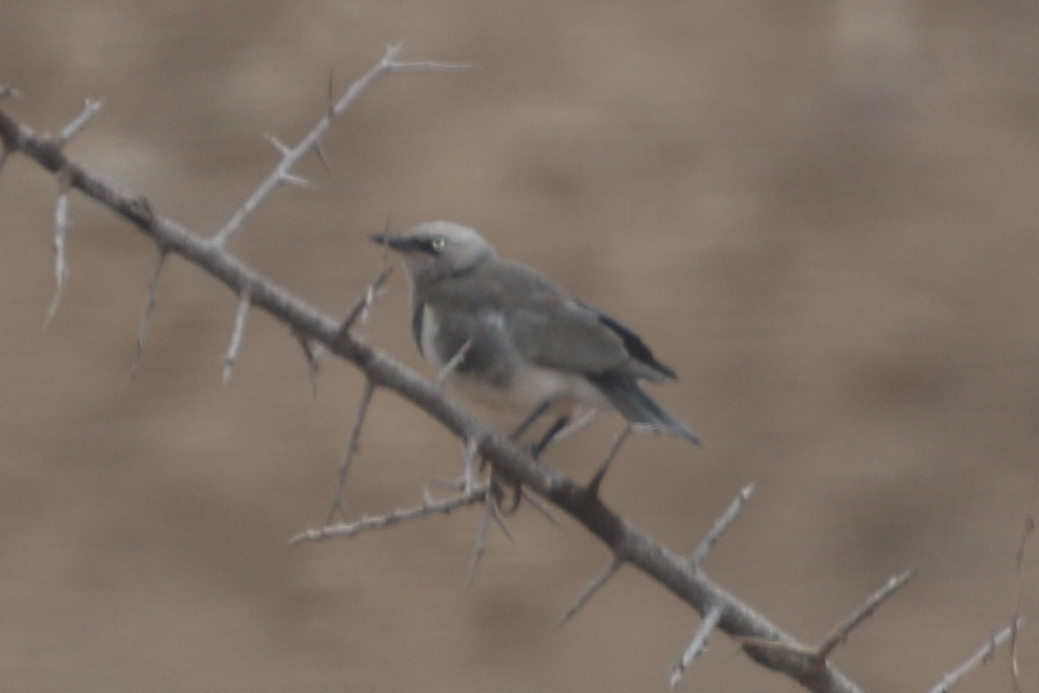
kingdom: Animalia
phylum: Chordata
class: Aves
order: Passeriformes
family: Sturnidae
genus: Lamprotornis
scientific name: Lamprotornis fischeri
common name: Fischer's starling
